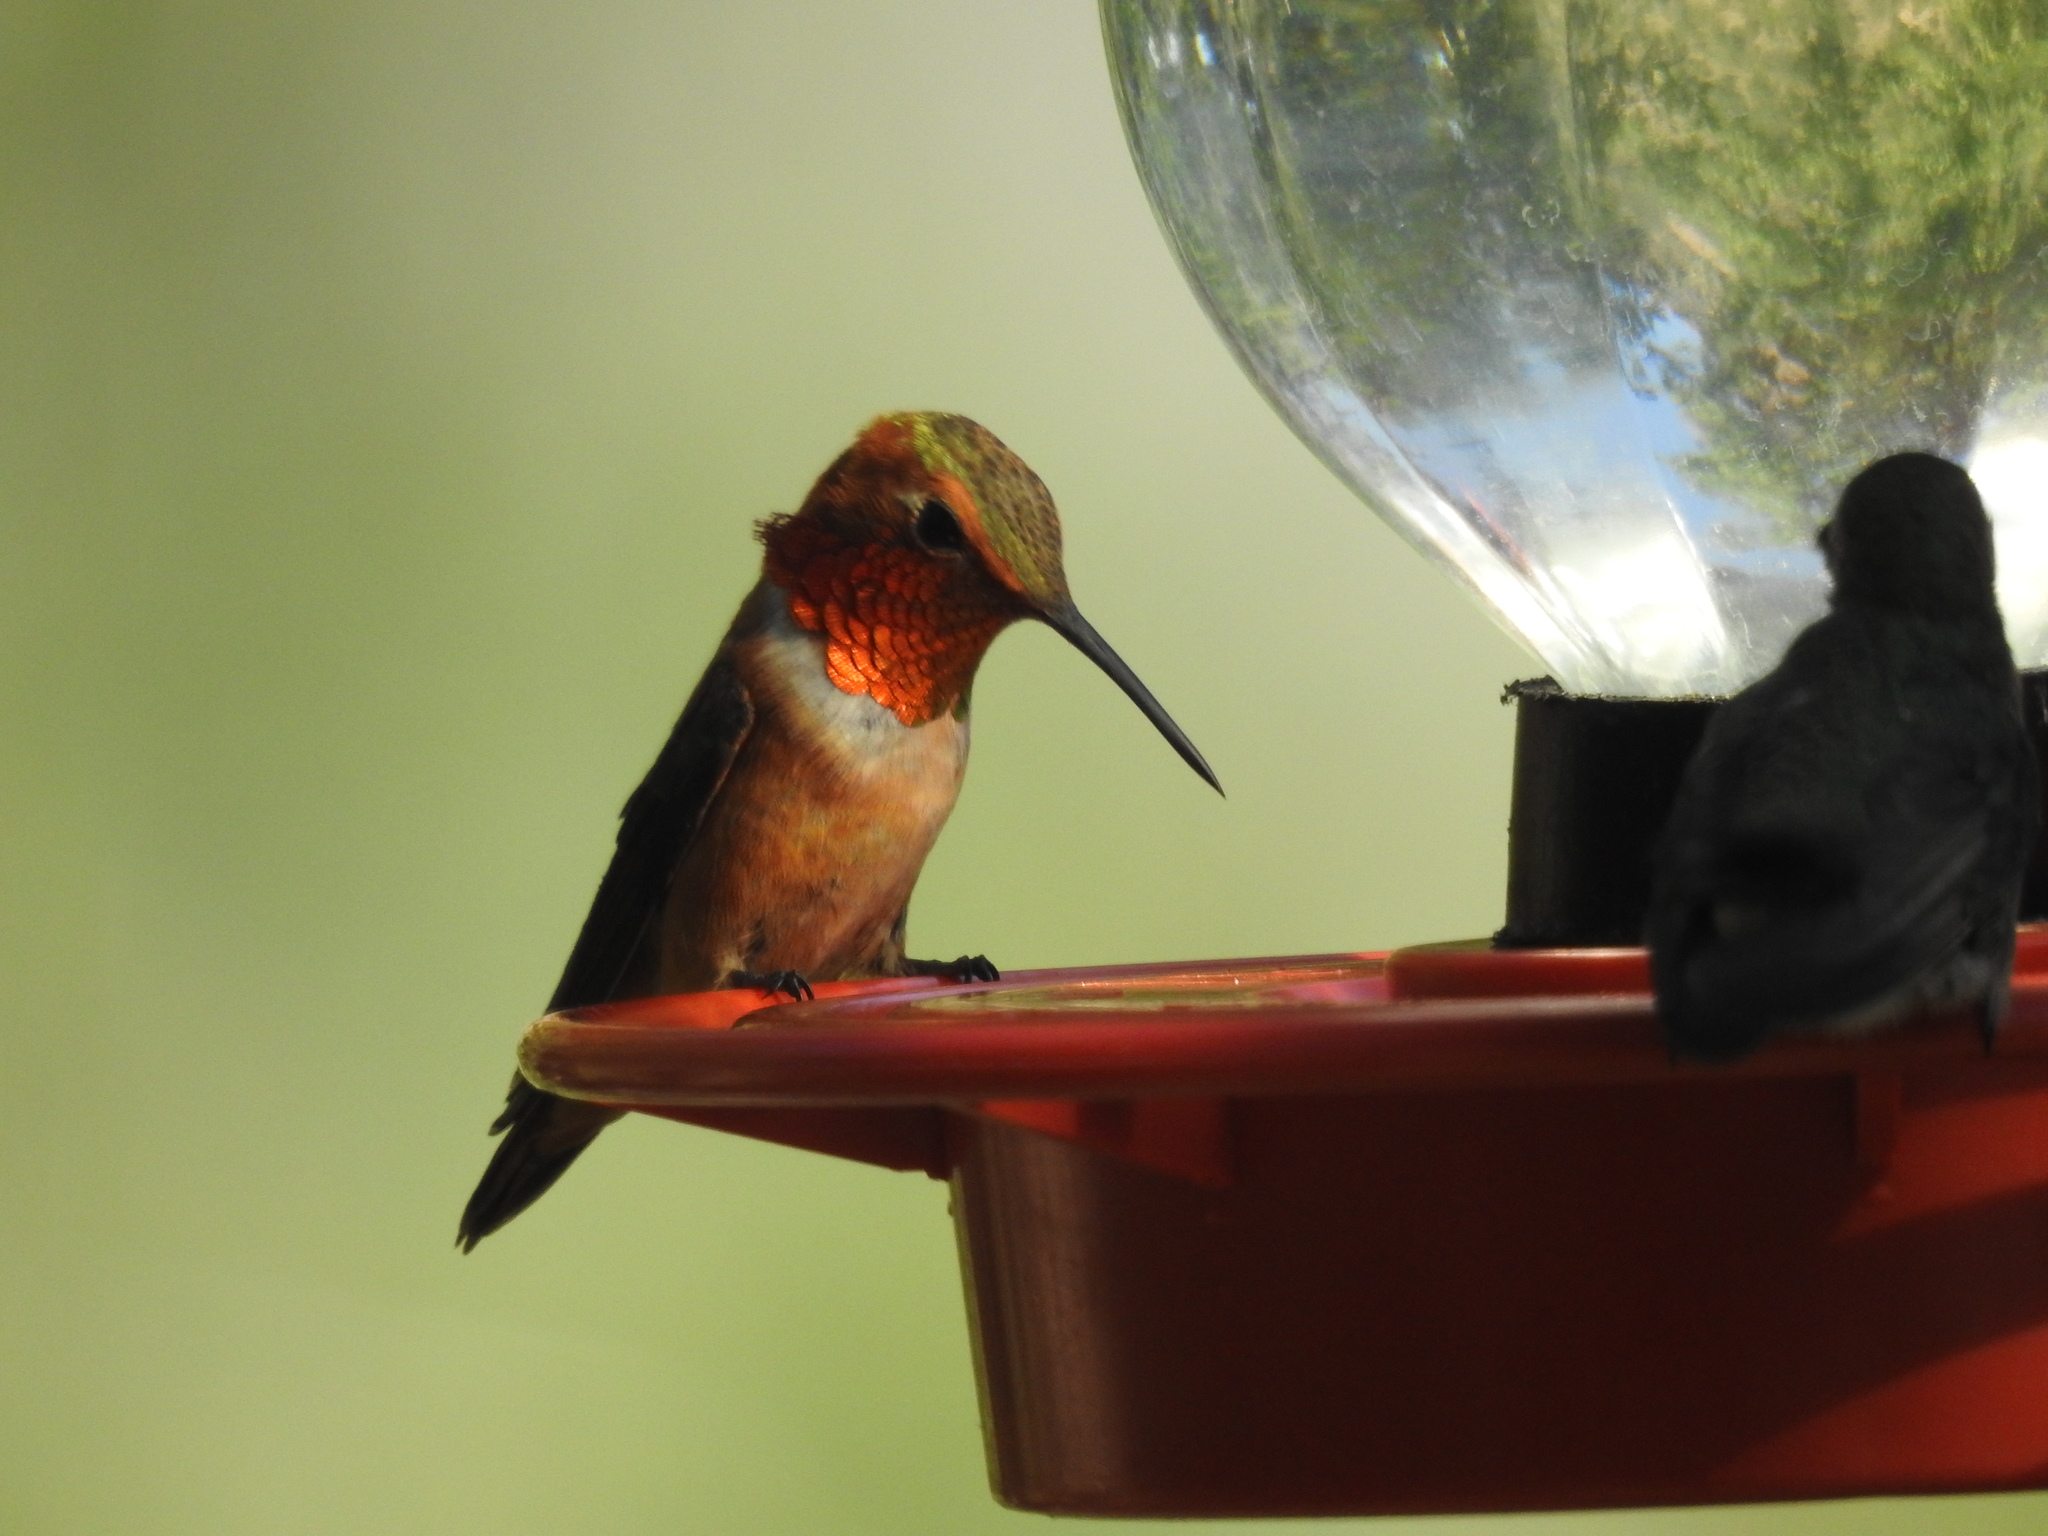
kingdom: Animalia
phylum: Chordata
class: Aves
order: Apodiformes
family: Trochilidae
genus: Selasphorus
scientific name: Selasphorus rufus
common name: Rufous hummingbird
